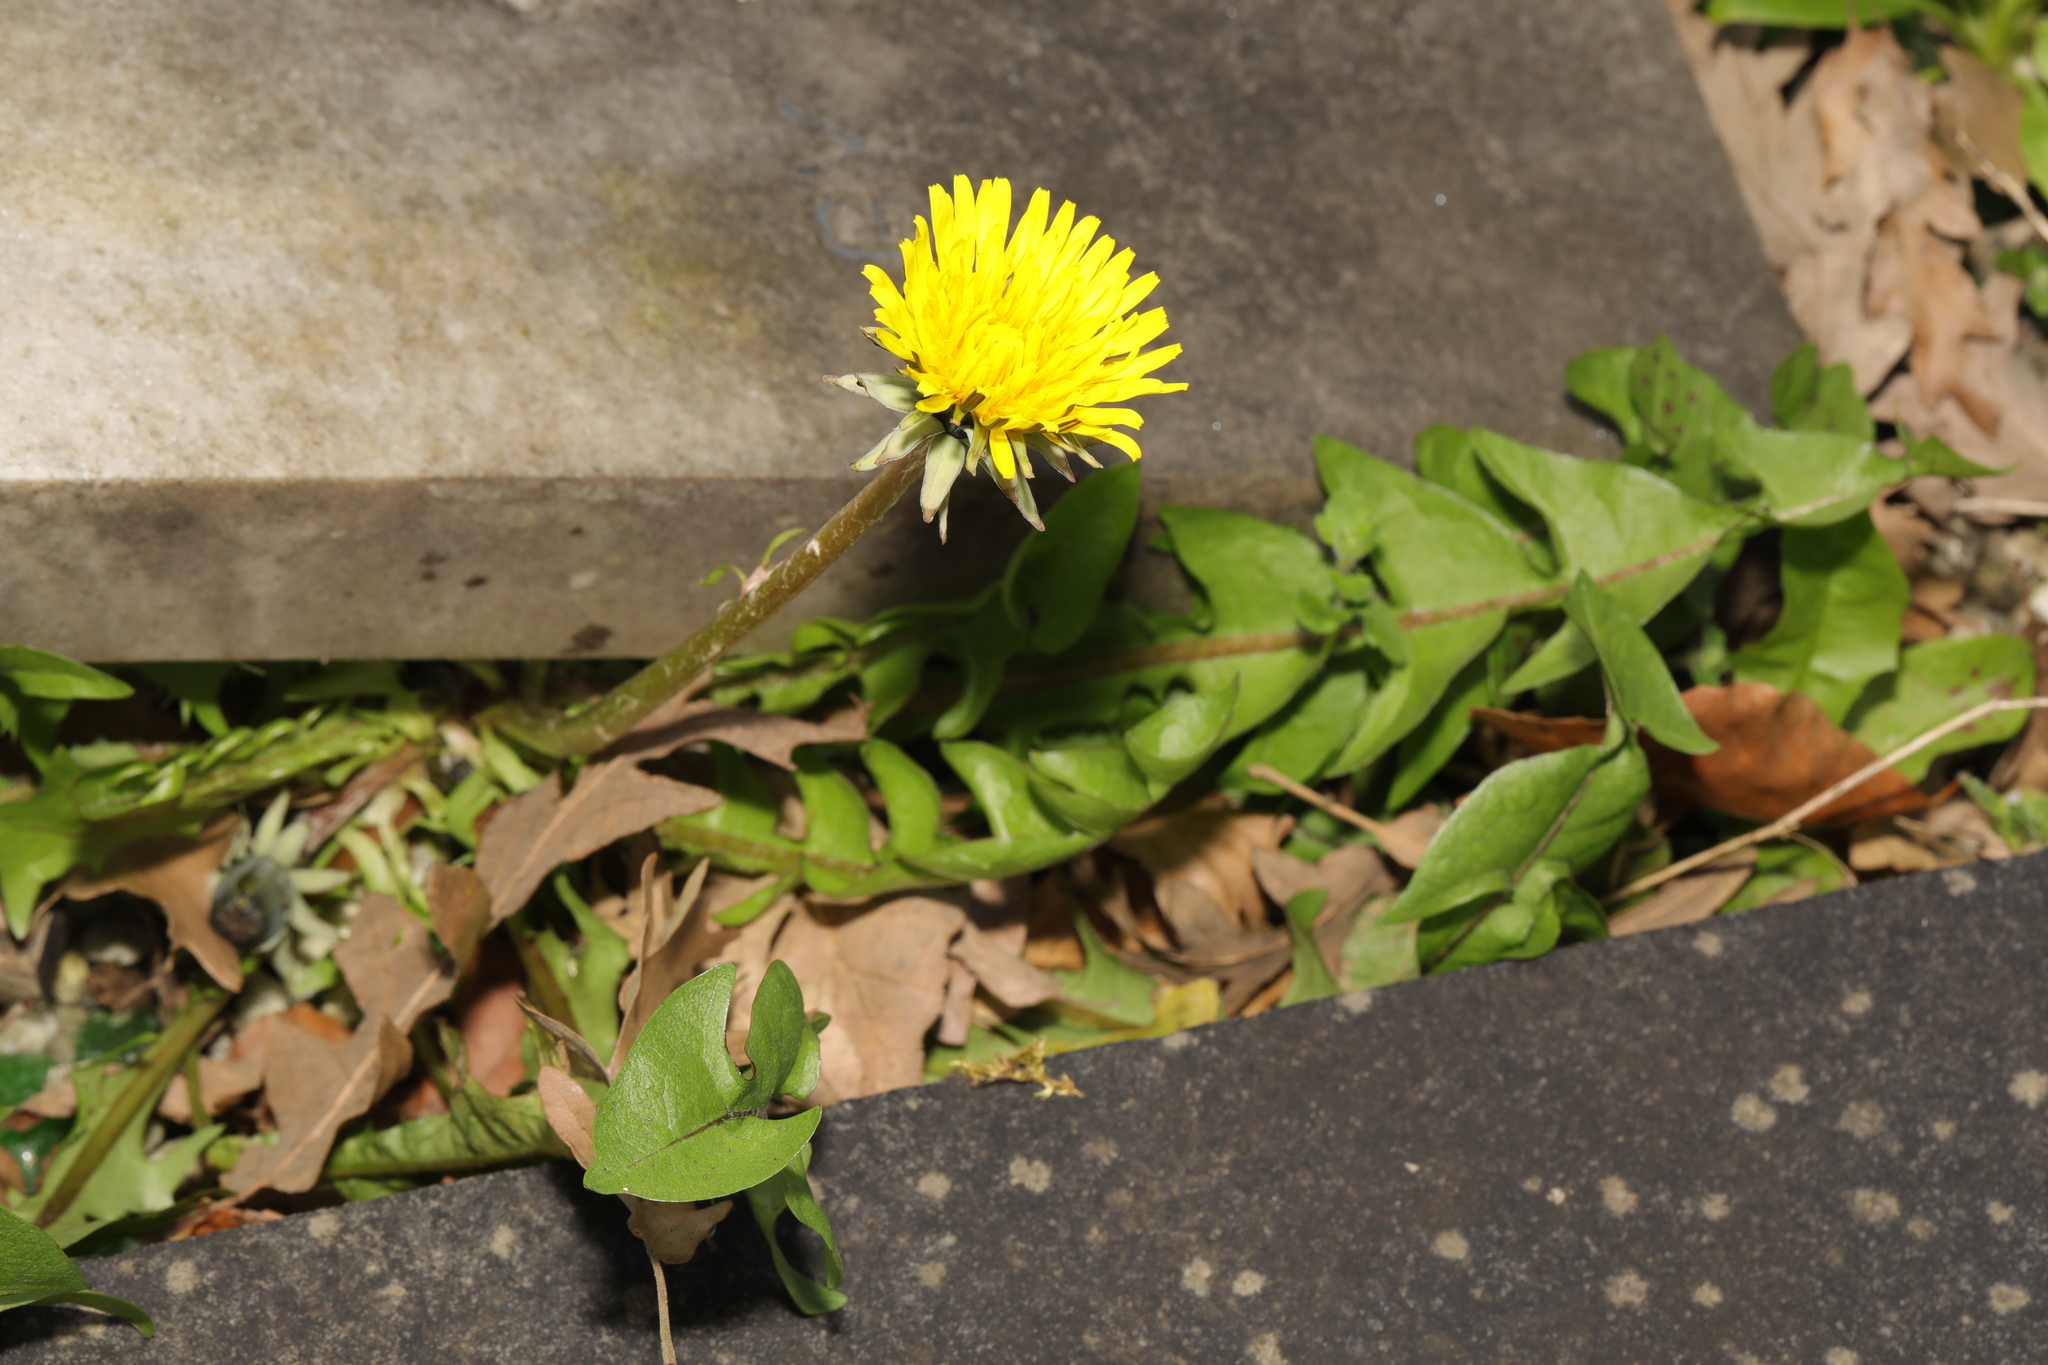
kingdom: Plantae
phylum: Tracheophyta
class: Magnoliopsida
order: Asterales
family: Asteraceae
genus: Taraxacum
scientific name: Taraxacum officinale
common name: Common dandelion
